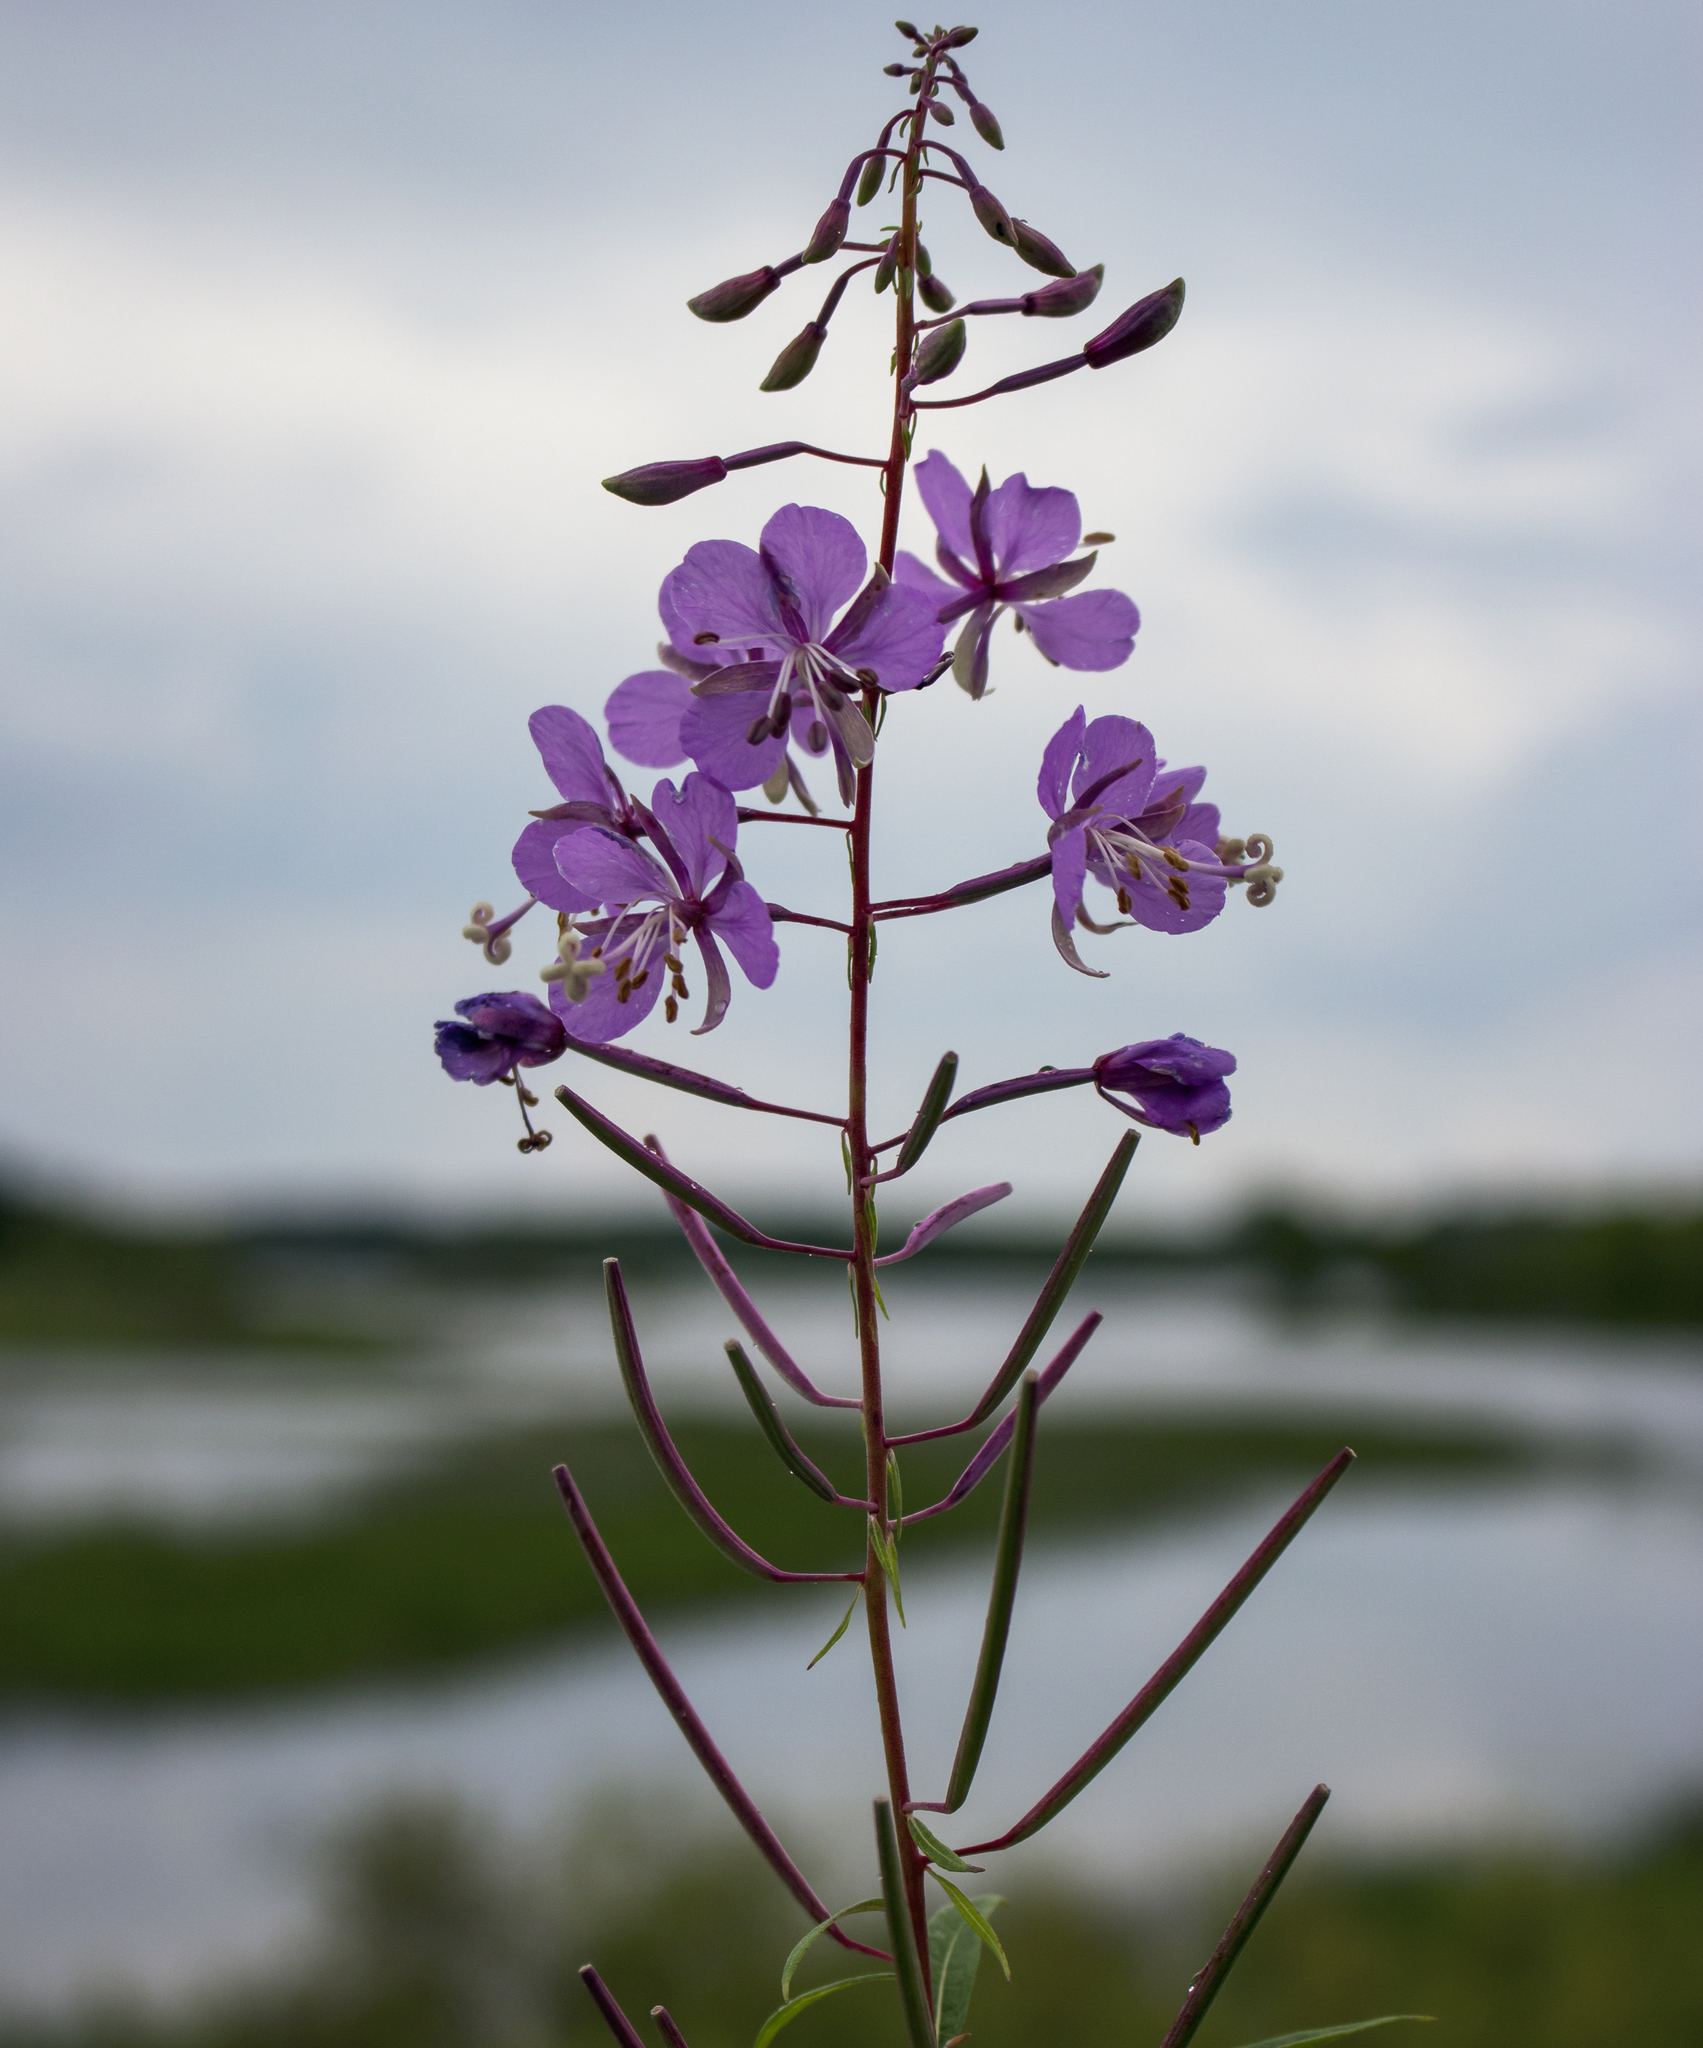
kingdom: Plantae
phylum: Tracheophyta
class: Magnoliopsida
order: Myrtales
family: Onagraceae
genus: Chamaenerion
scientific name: Chamaenerion angustifolium
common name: Fireweed
